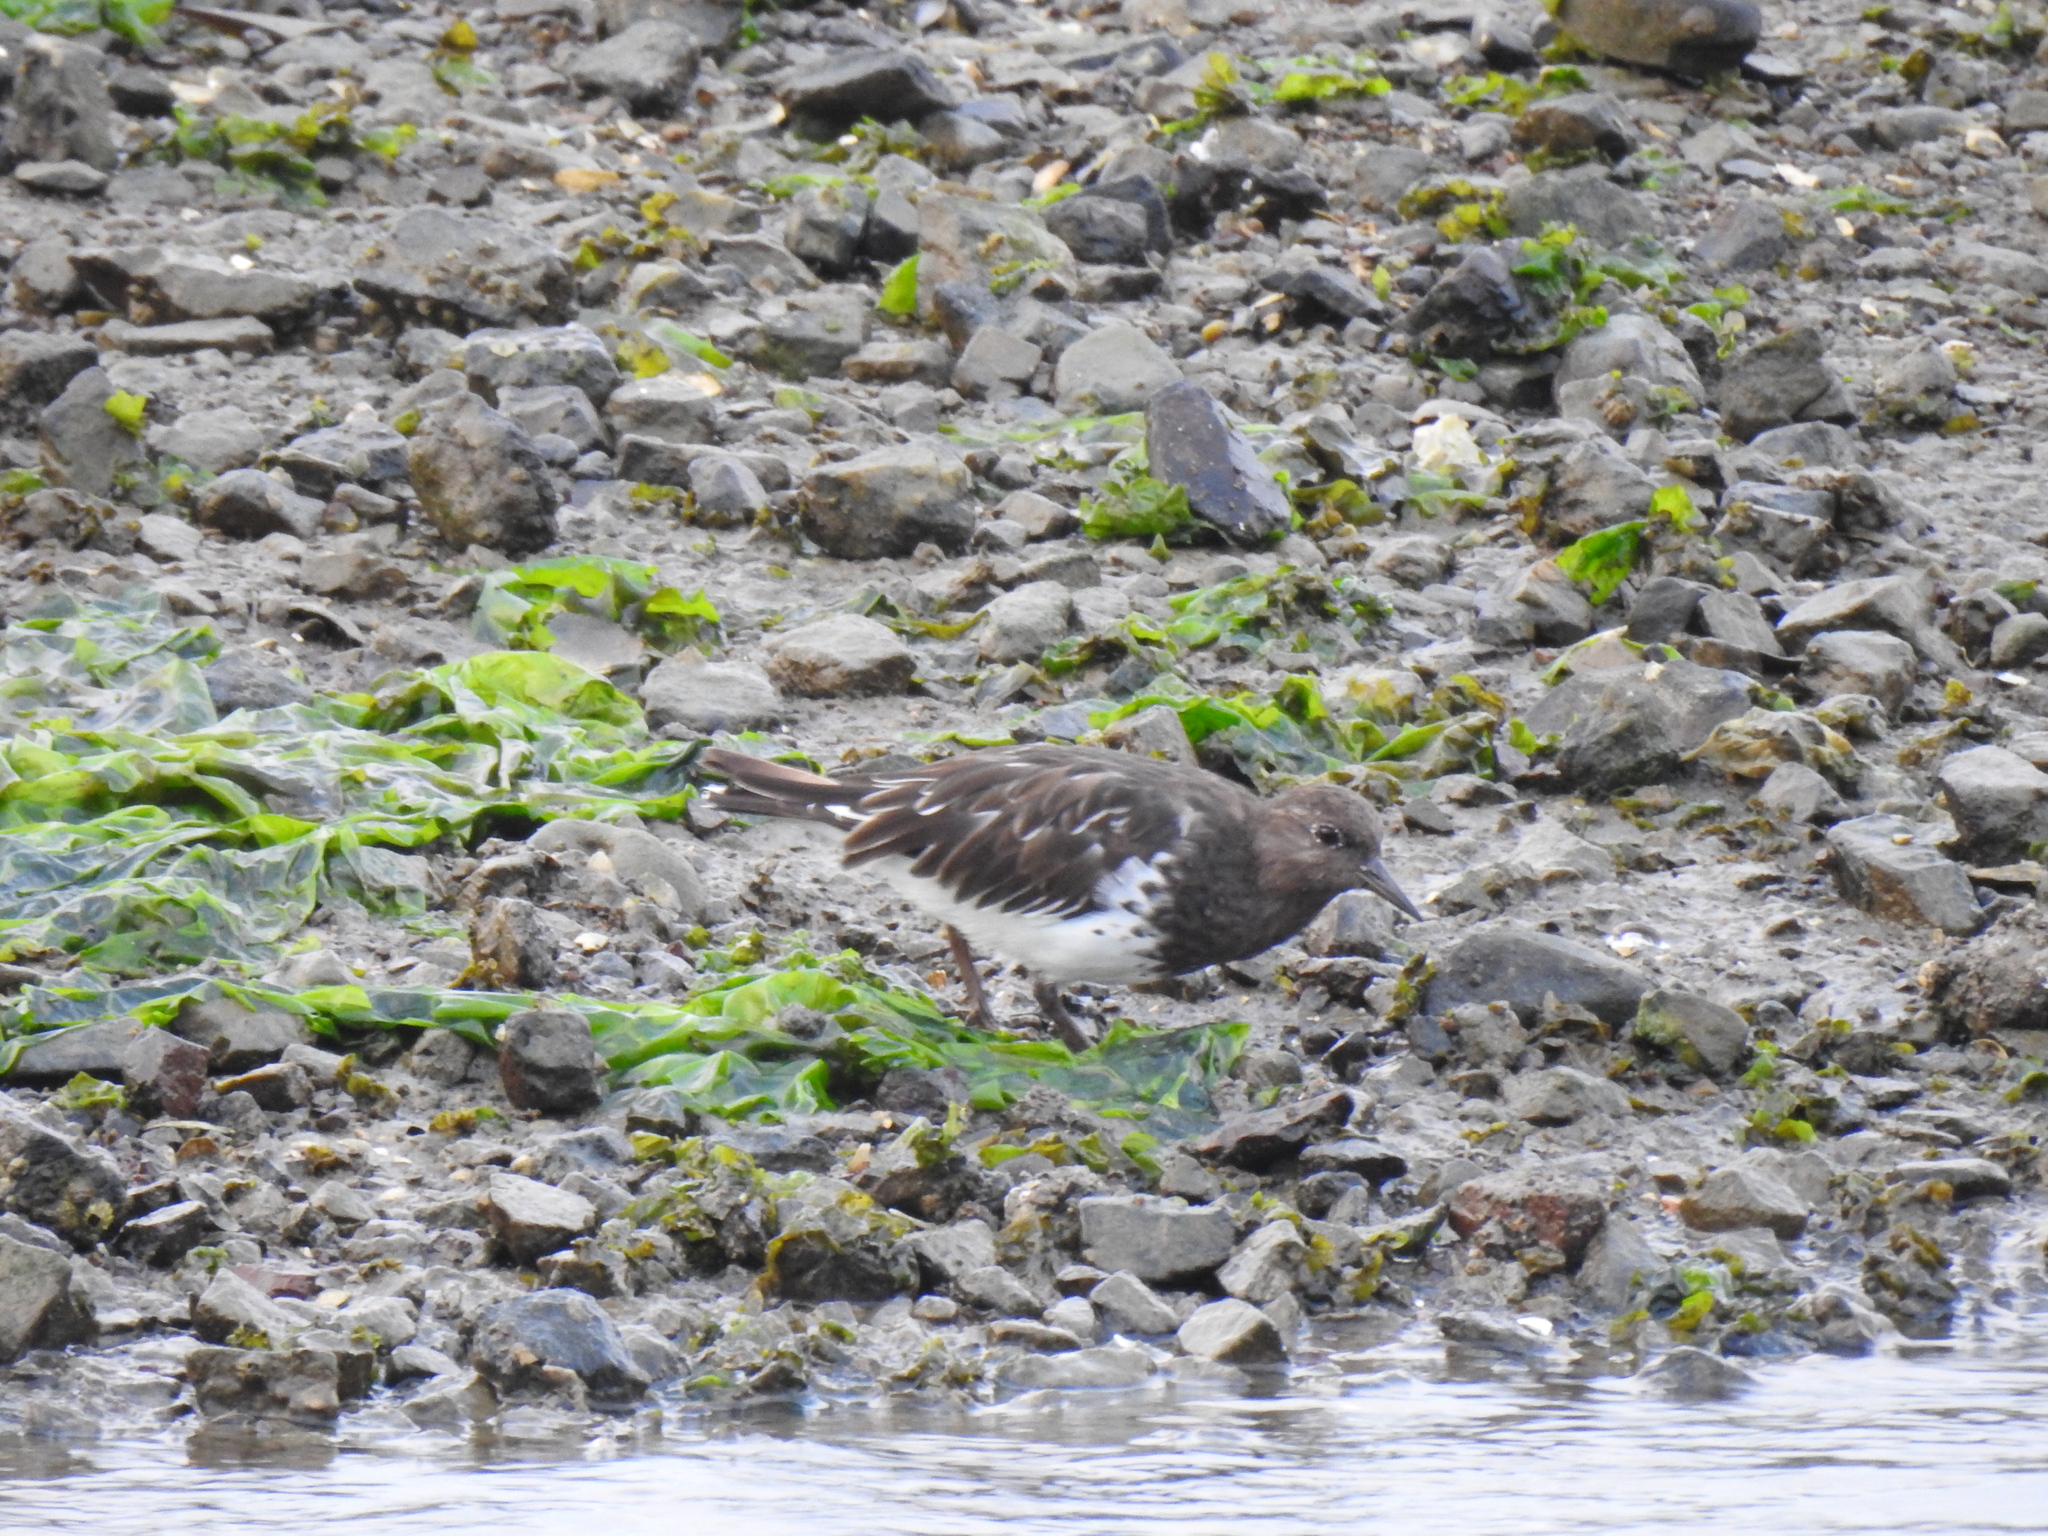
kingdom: Animalia
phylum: Chordata
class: Aves
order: Charadriiformes
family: Scolopacidae
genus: Arenaria
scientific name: Arenaria melanocephala
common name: Black turnstone
